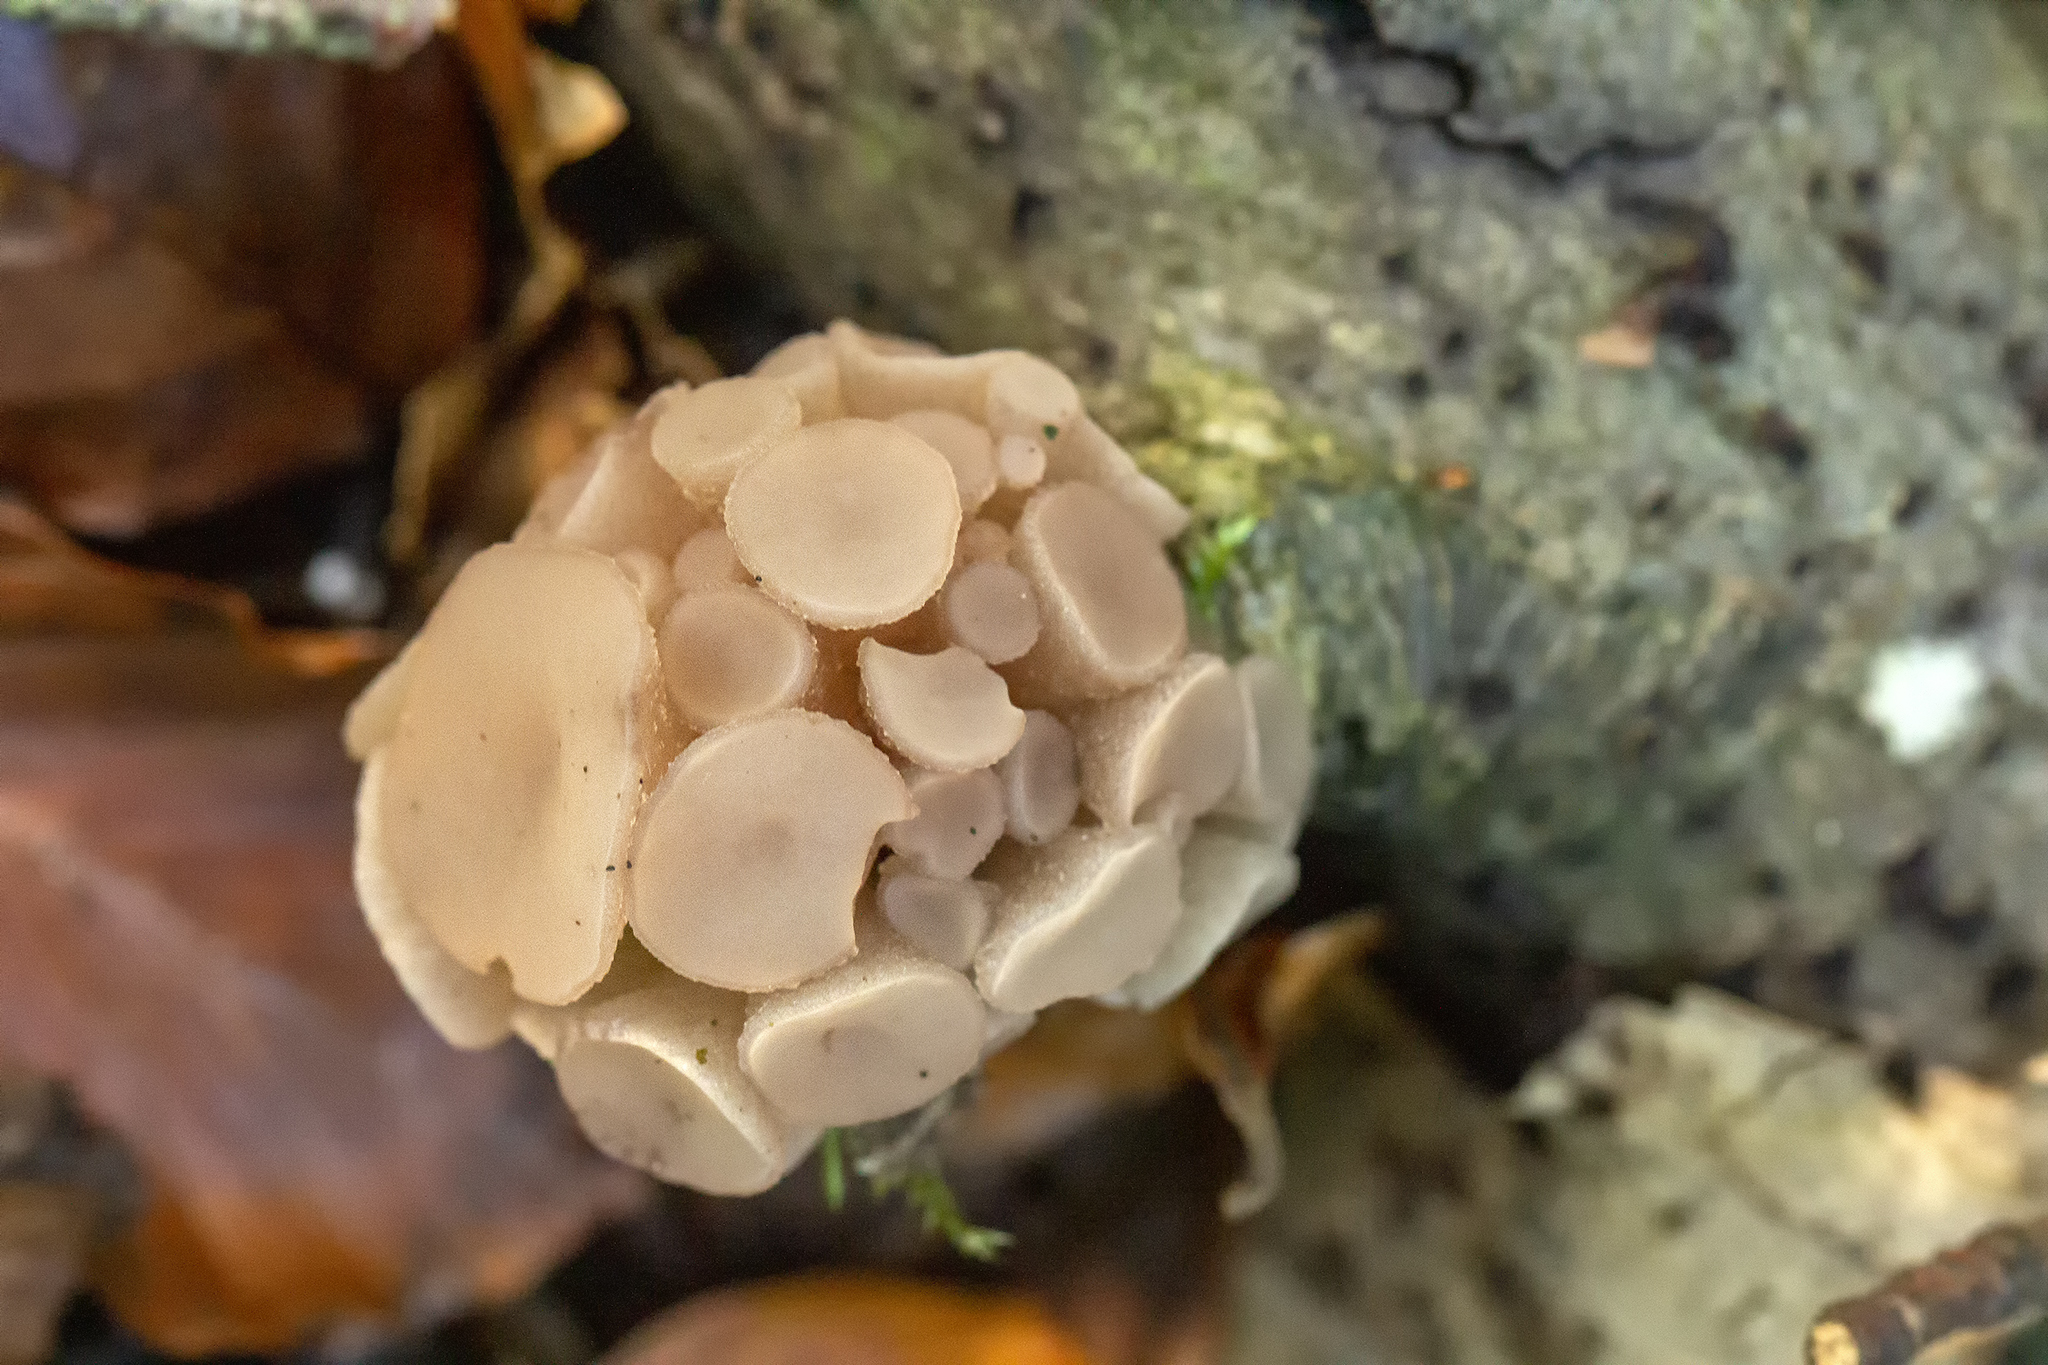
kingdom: Fungi
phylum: Ascomycota
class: Leotiomycetes
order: Helotiales
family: Gelatinodiscaceae
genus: Neobulgaria
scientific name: Neobulgaria pura
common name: Beech jelly-disc
